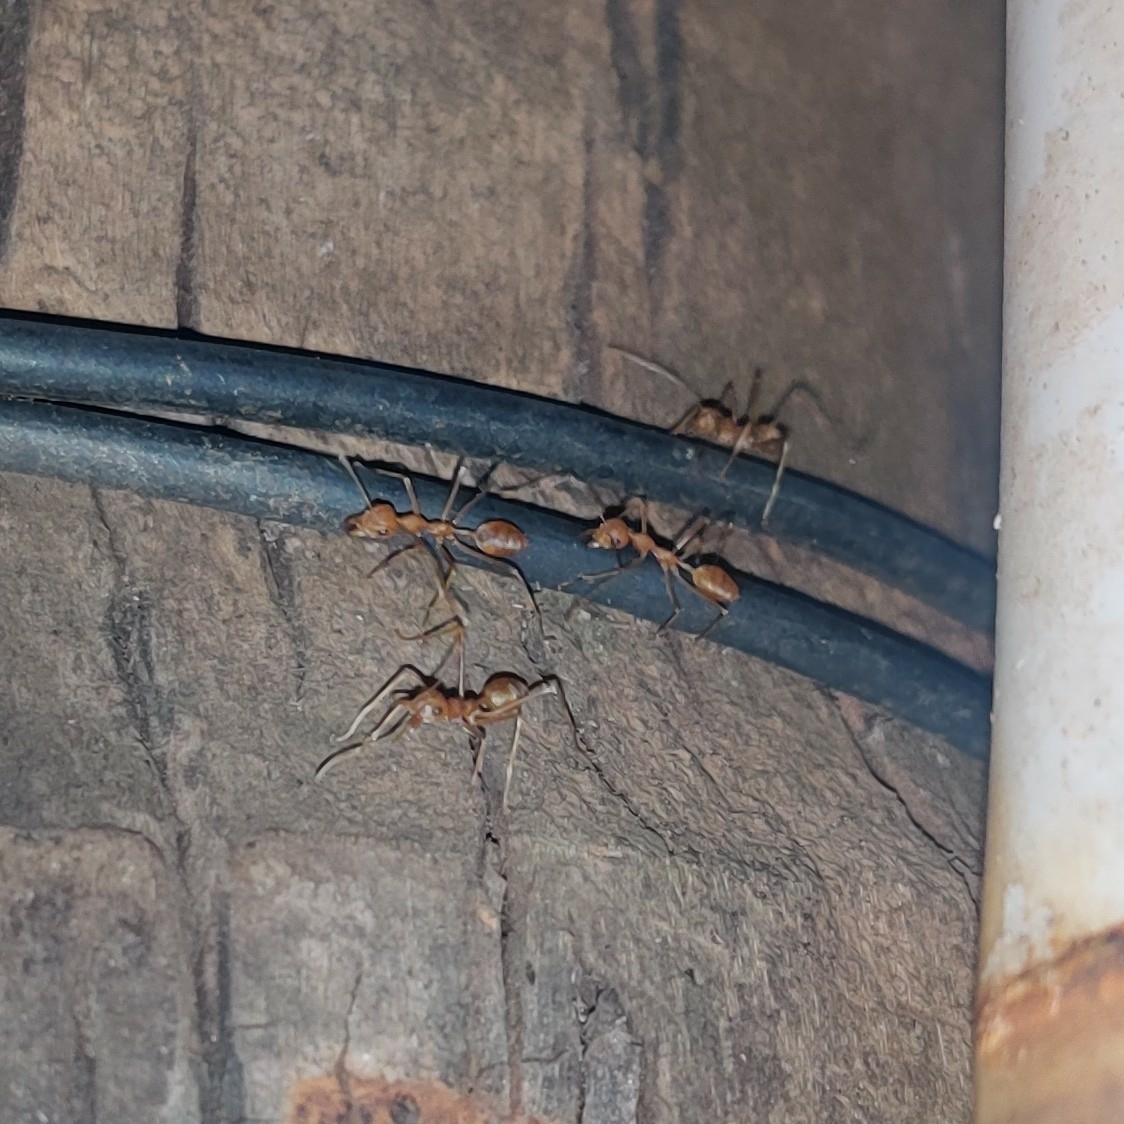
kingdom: Animalia
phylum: Arthropoda
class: Insecta
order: Hymenoptera
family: Formicidae
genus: Oecophylla
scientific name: Oecophylla smaragdina
